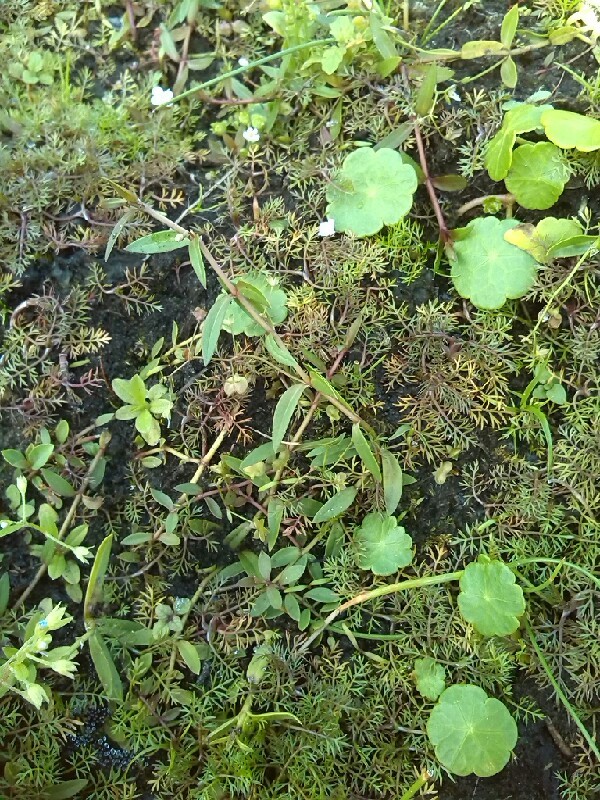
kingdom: Plantae
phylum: Tracheophyta
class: Magnoliopsida
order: Lamiales
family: Plantaginaceae
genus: Veronica
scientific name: Veronica scutellata
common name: Marsh speedwell
